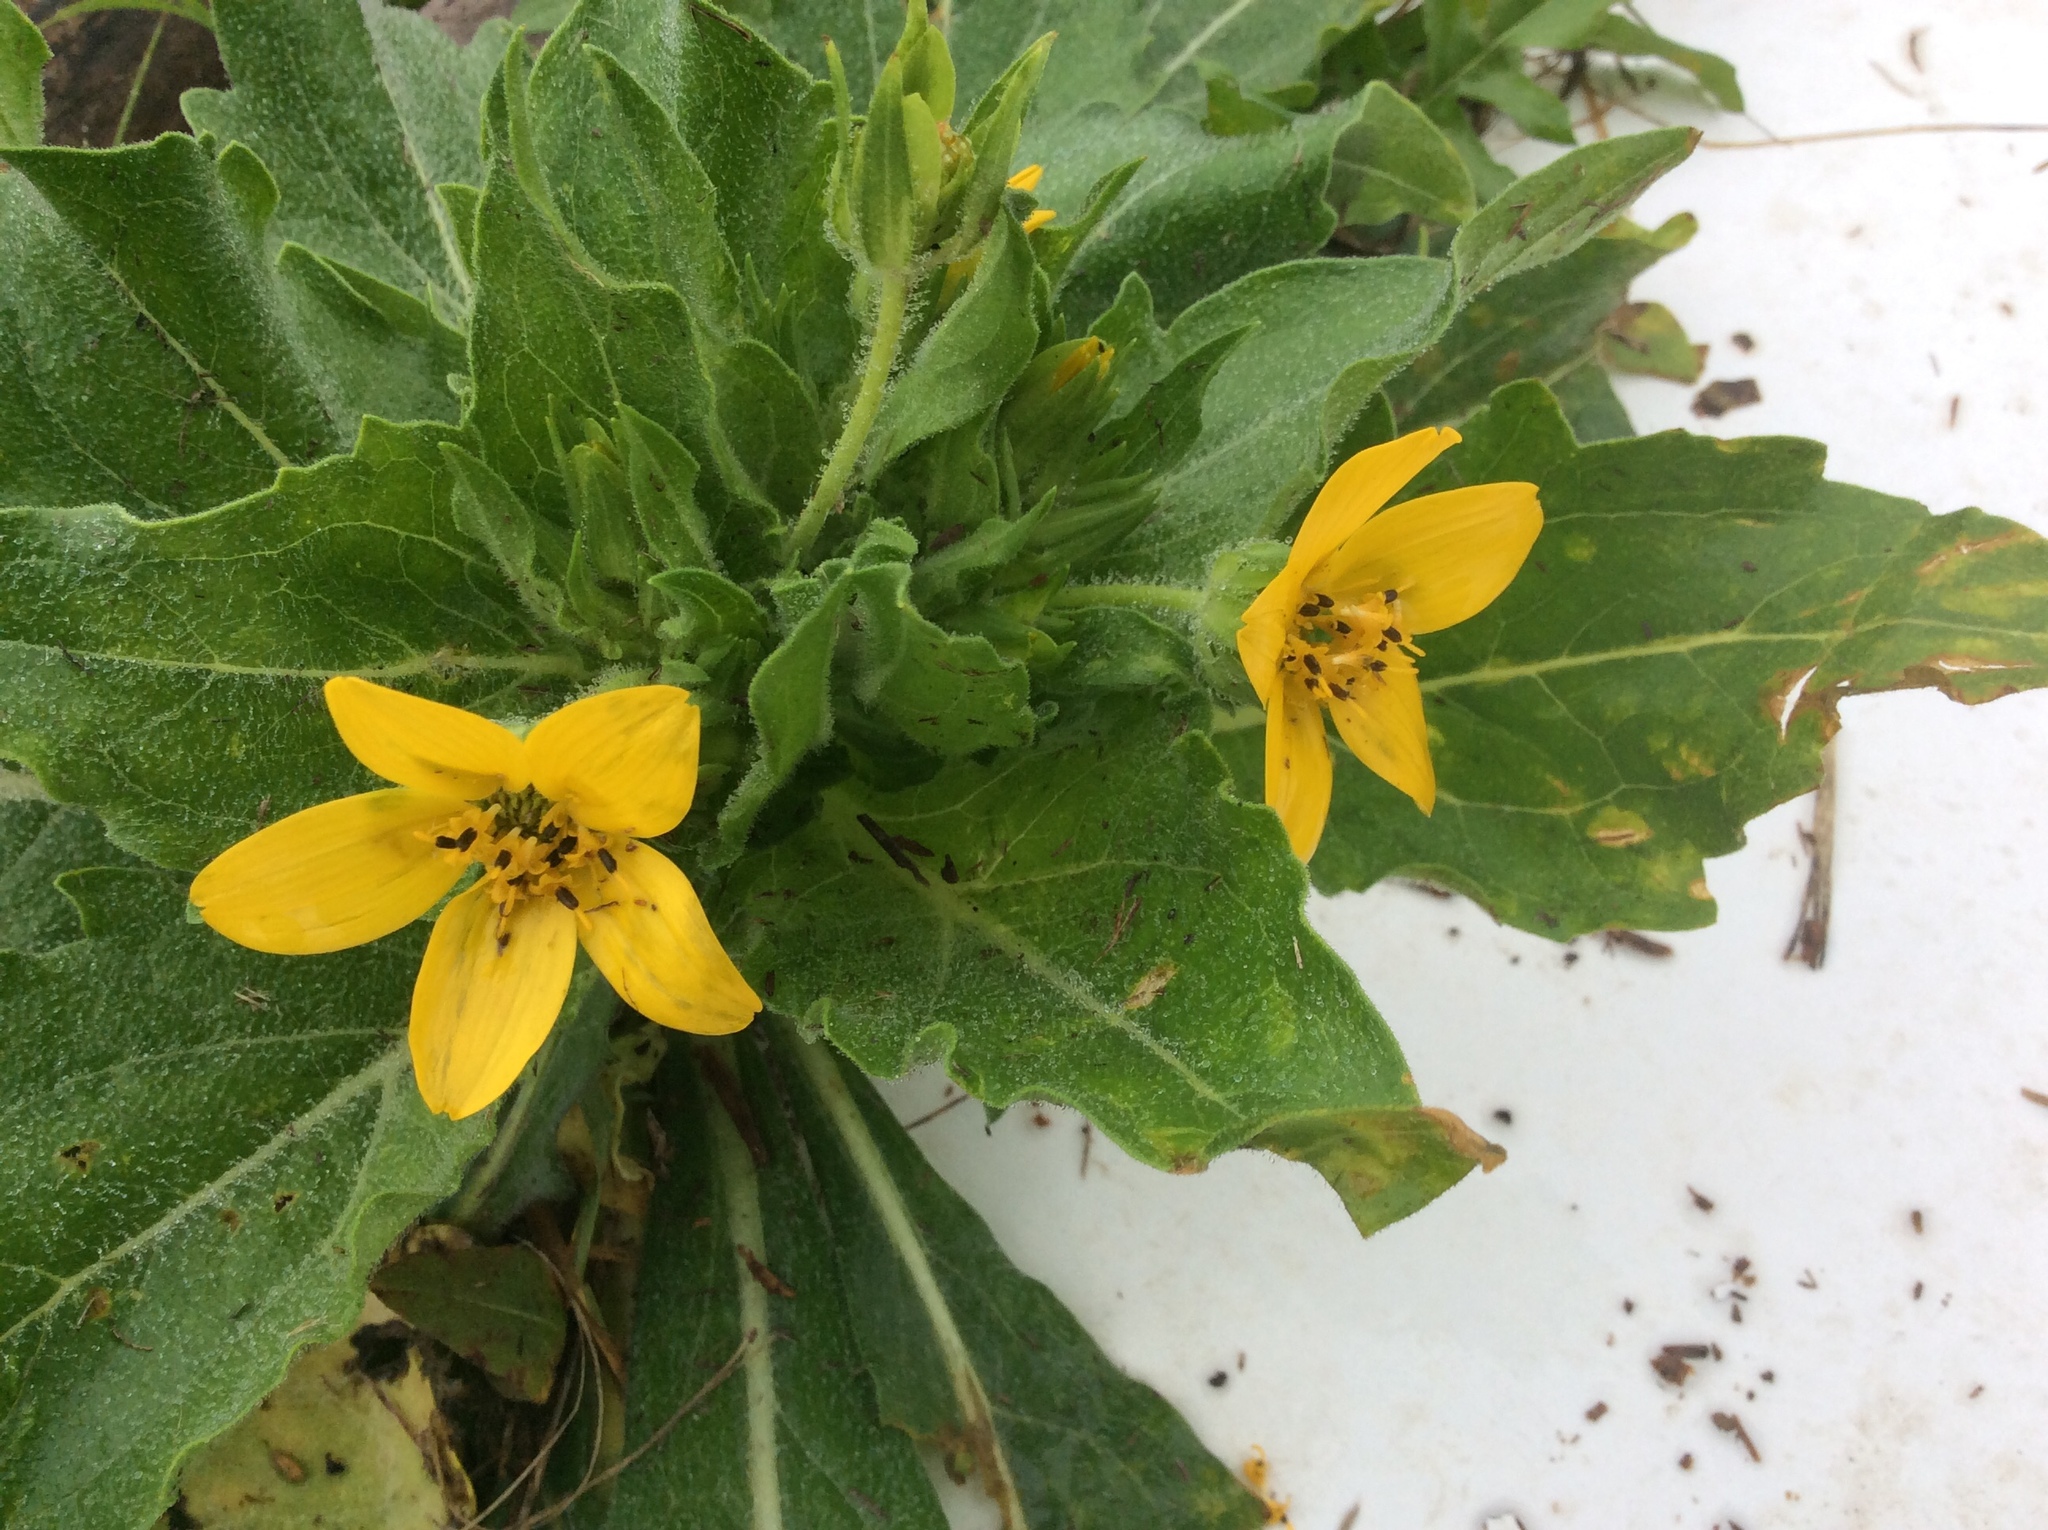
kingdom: Plantae
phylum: Tracheophyta
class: Magnoliopsida
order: Asterales
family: Asteraceae
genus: Lindheimera
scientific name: Lindheimera texana
